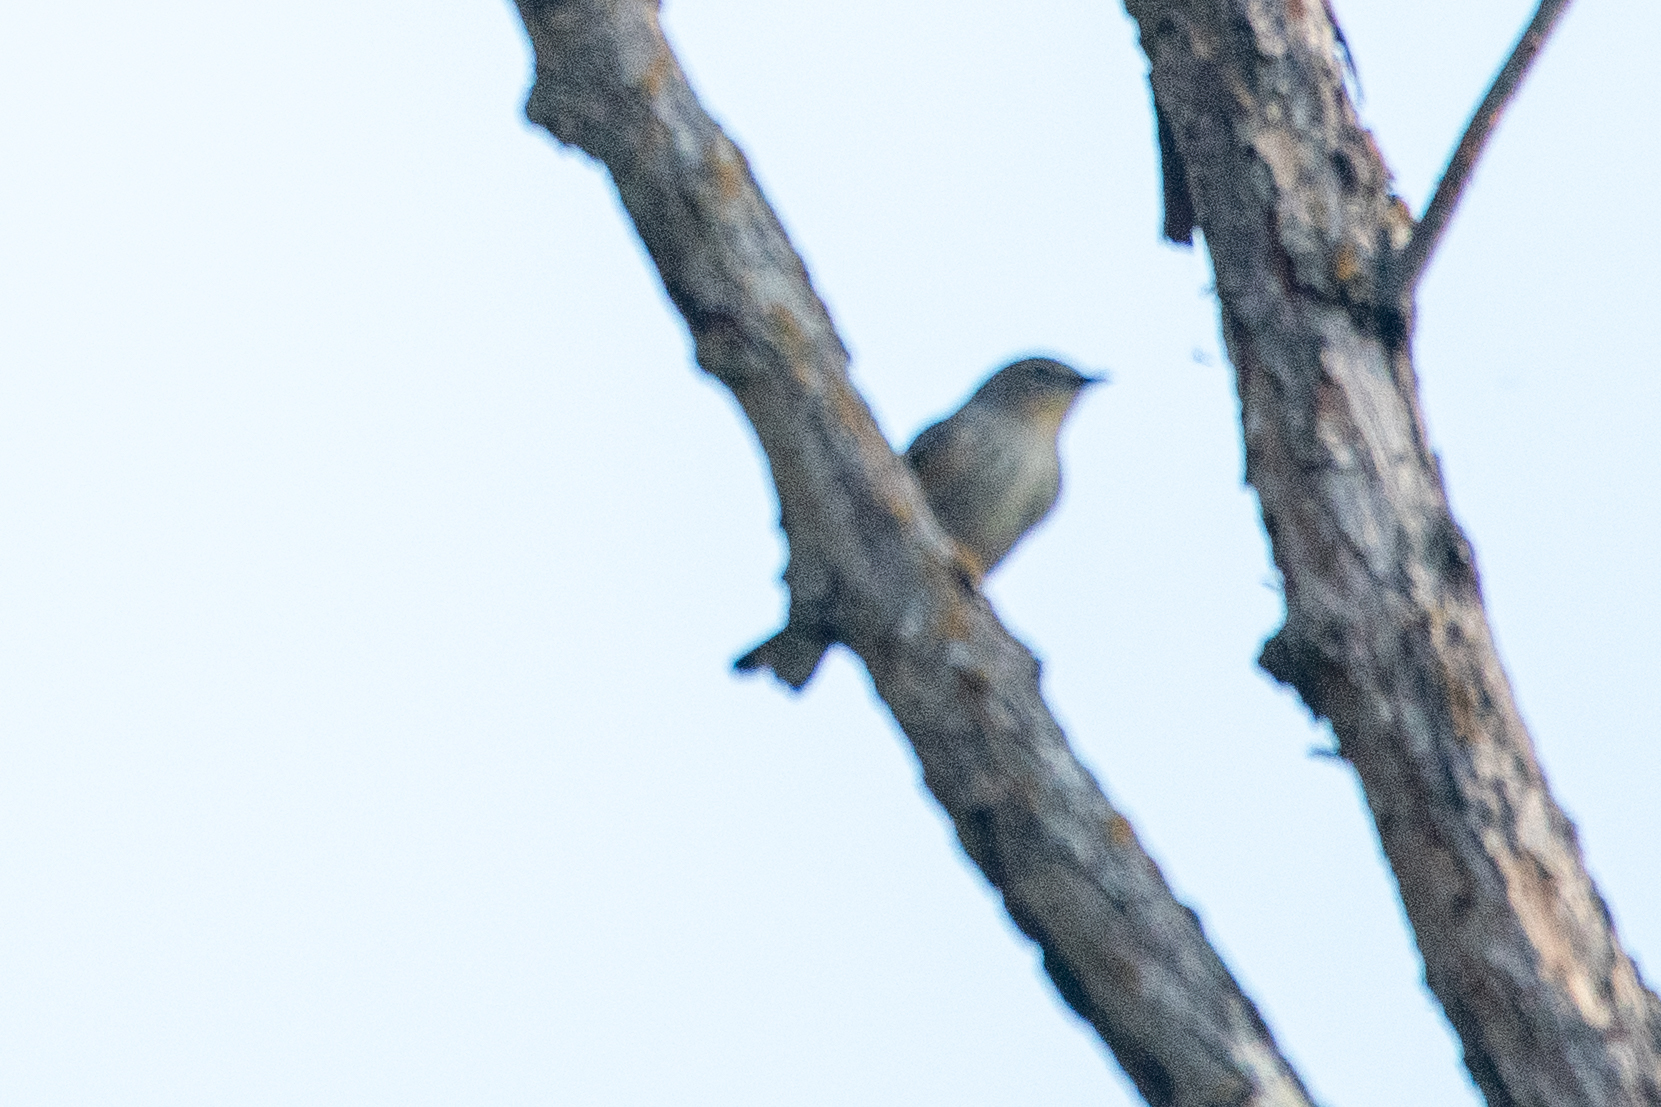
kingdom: Animalia
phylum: Chordata
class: Aves
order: Passeriformes
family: Parulidae
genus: Setophaga
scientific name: Setophaga coronata
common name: Myrtle warbler
